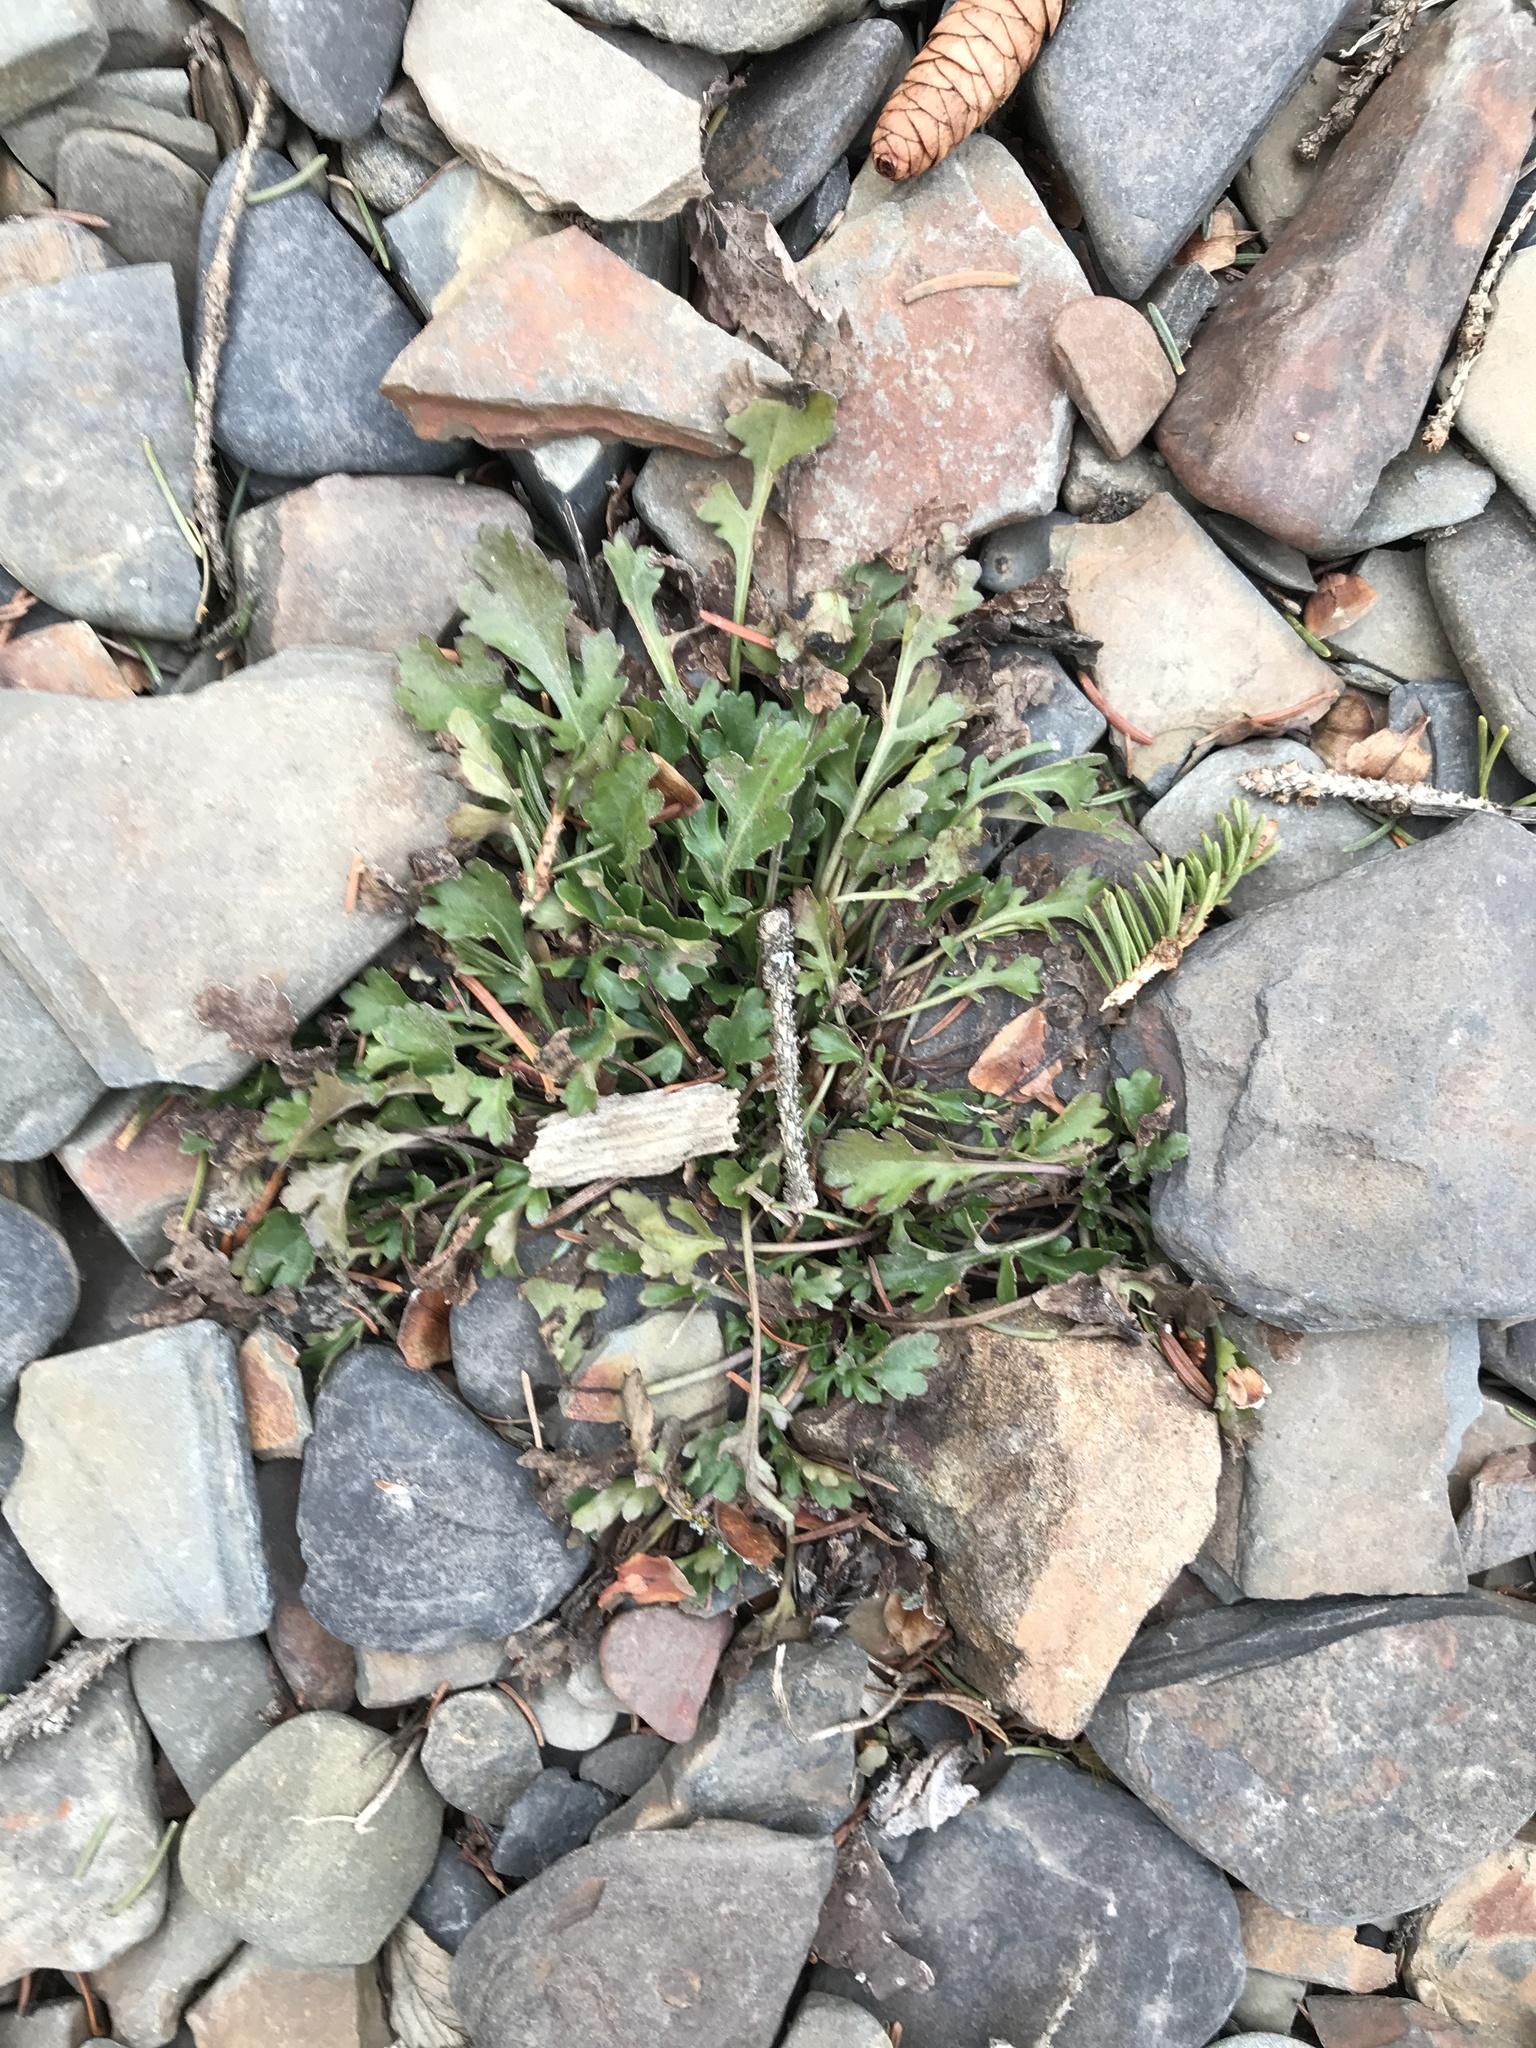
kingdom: Plantae
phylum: Tracheophyta
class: Magnoliopsida
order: Asterales
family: Asteraceae
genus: Leucanthemum
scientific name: Leucanthemum vulgare
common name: Oxeye daisy
